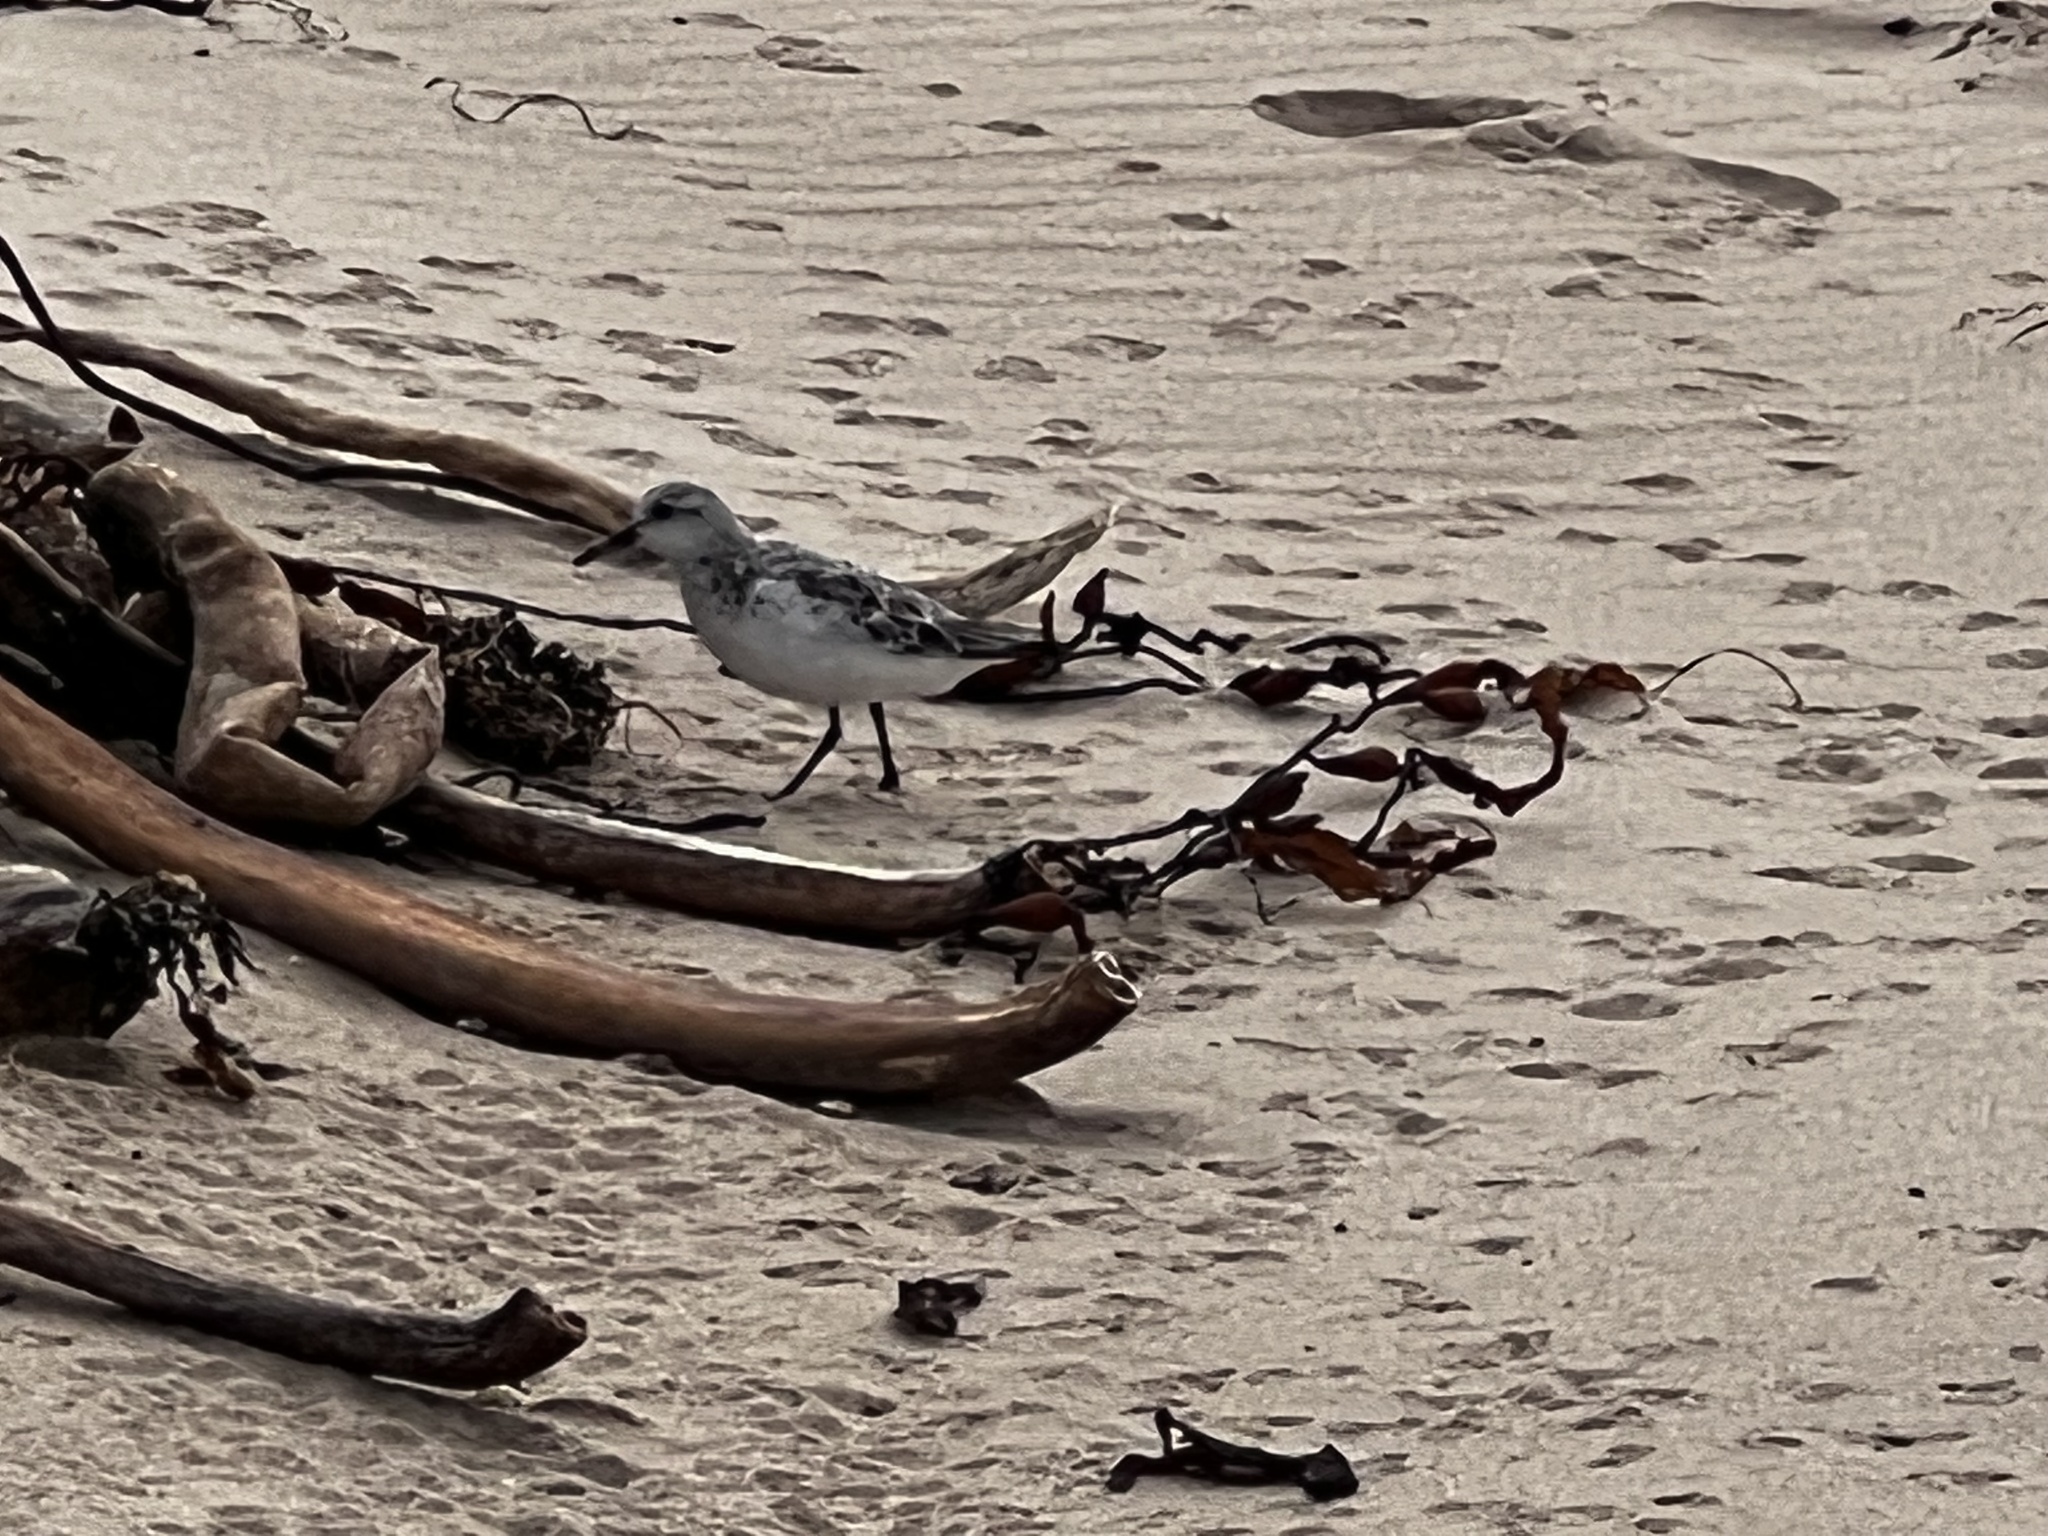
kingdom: Animalia
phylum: Chordata
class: Aves
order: Charadriiformes
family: Scolopacidae
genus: Calidris
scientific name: Calidris alba
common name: Sanderling
